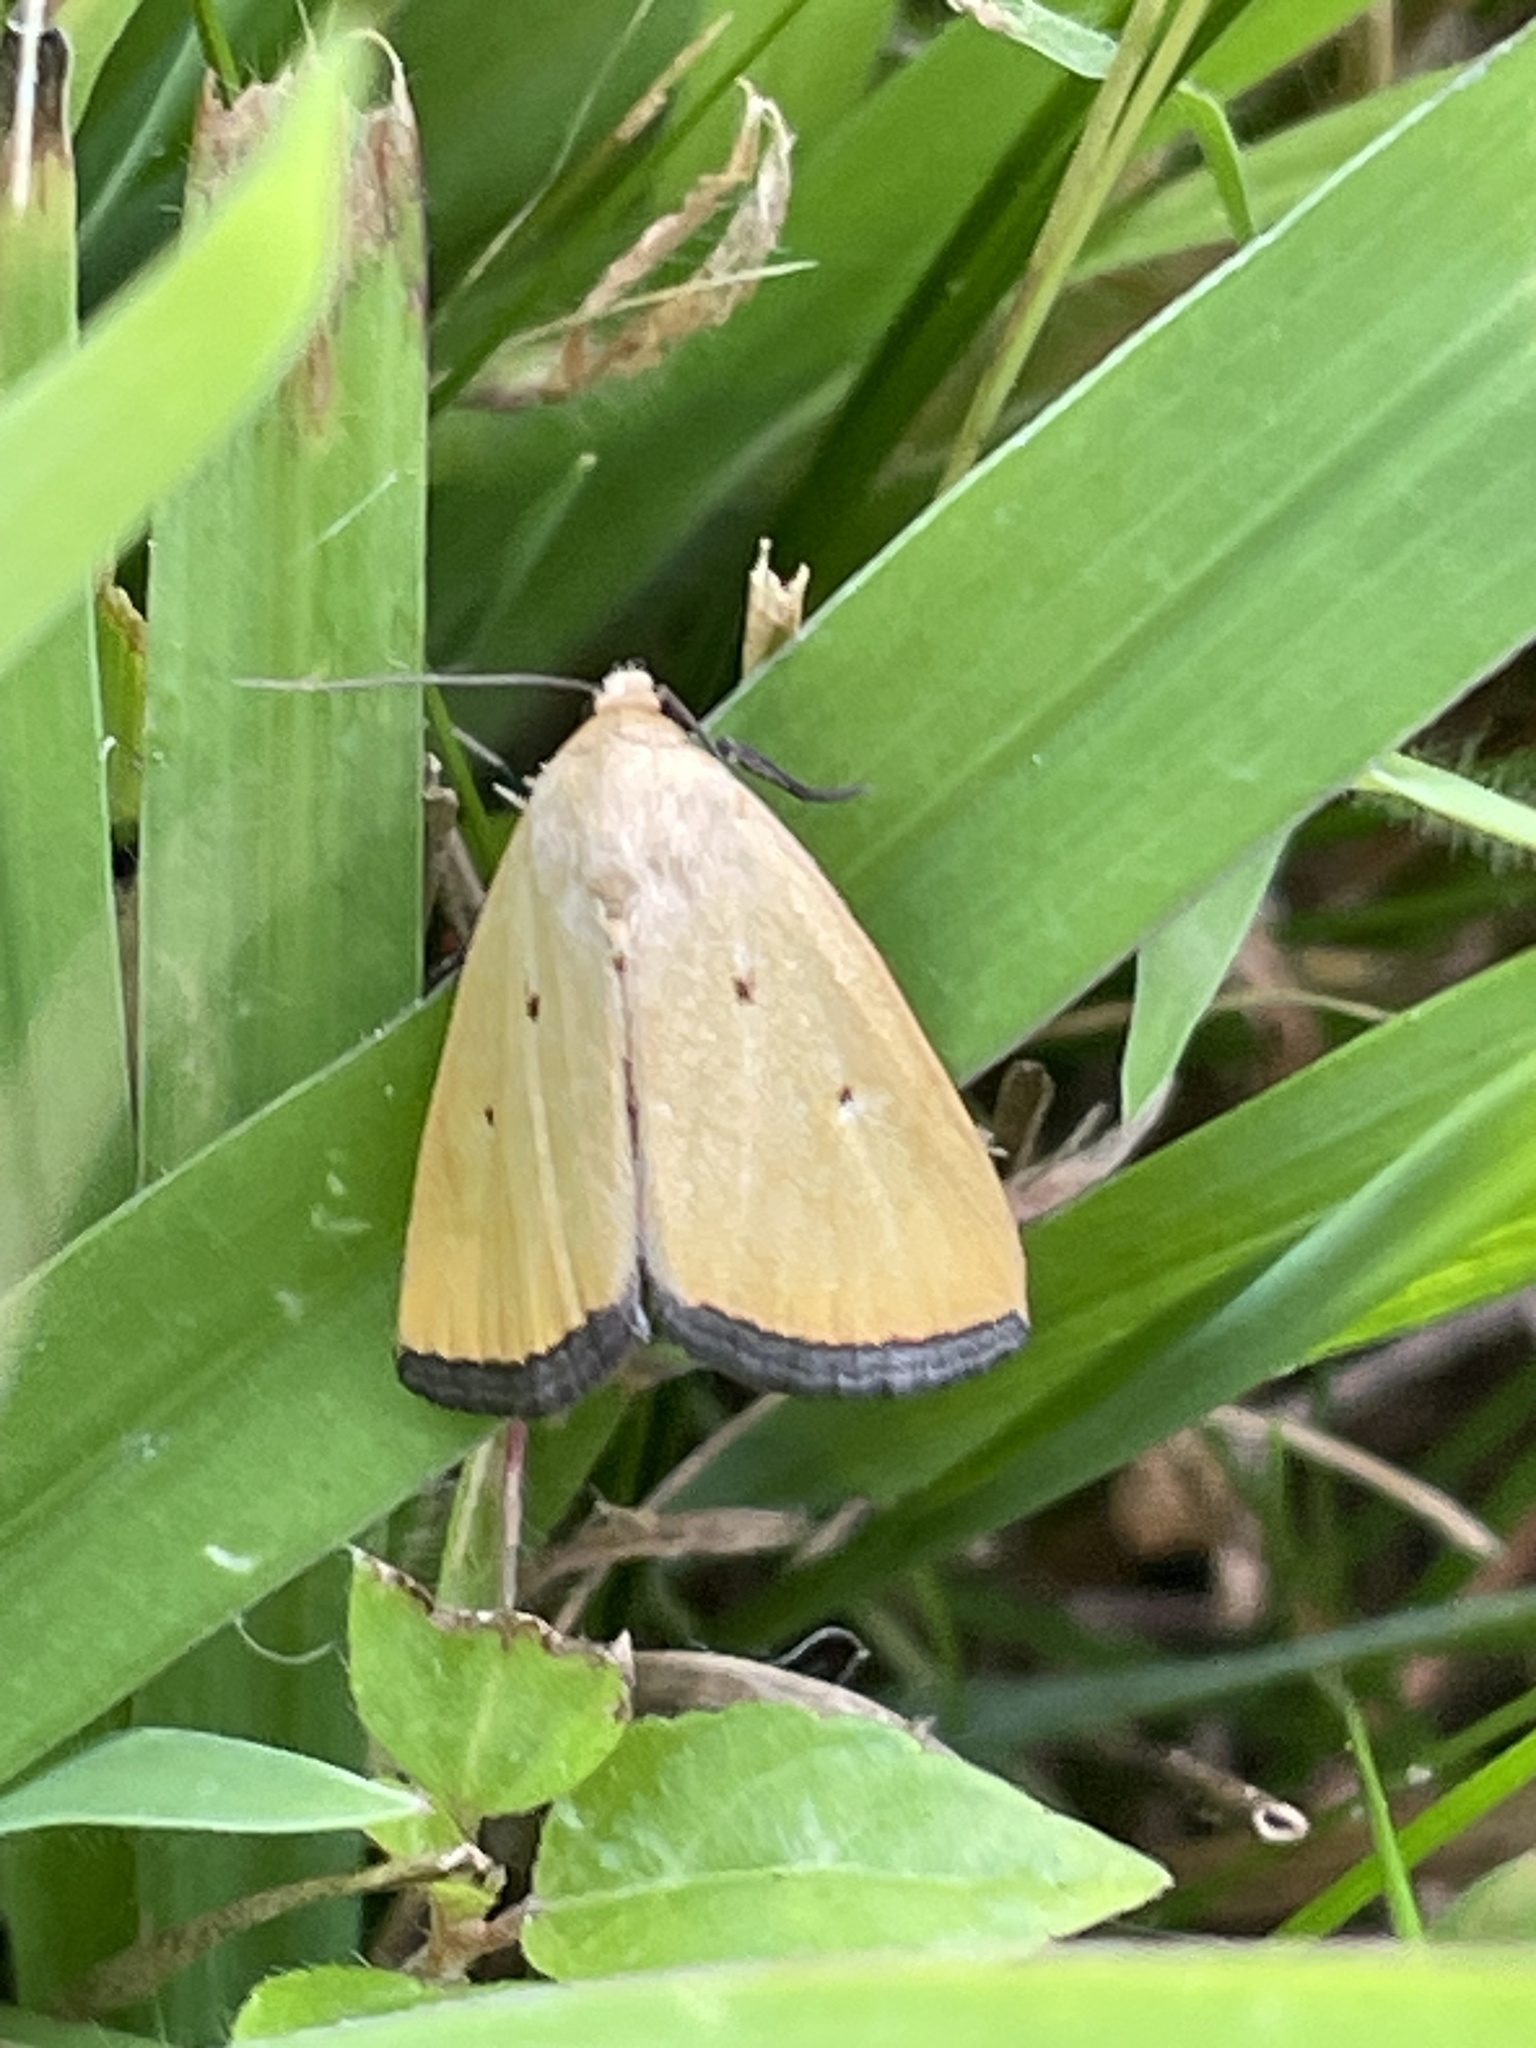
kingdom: Animalia
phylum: Arthropoda
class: Insecta
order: Lepidoptera
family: Noctuidae
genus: Marimatha
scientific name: Marimatha nigrofimbria
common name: Black-bordered lemon moth
